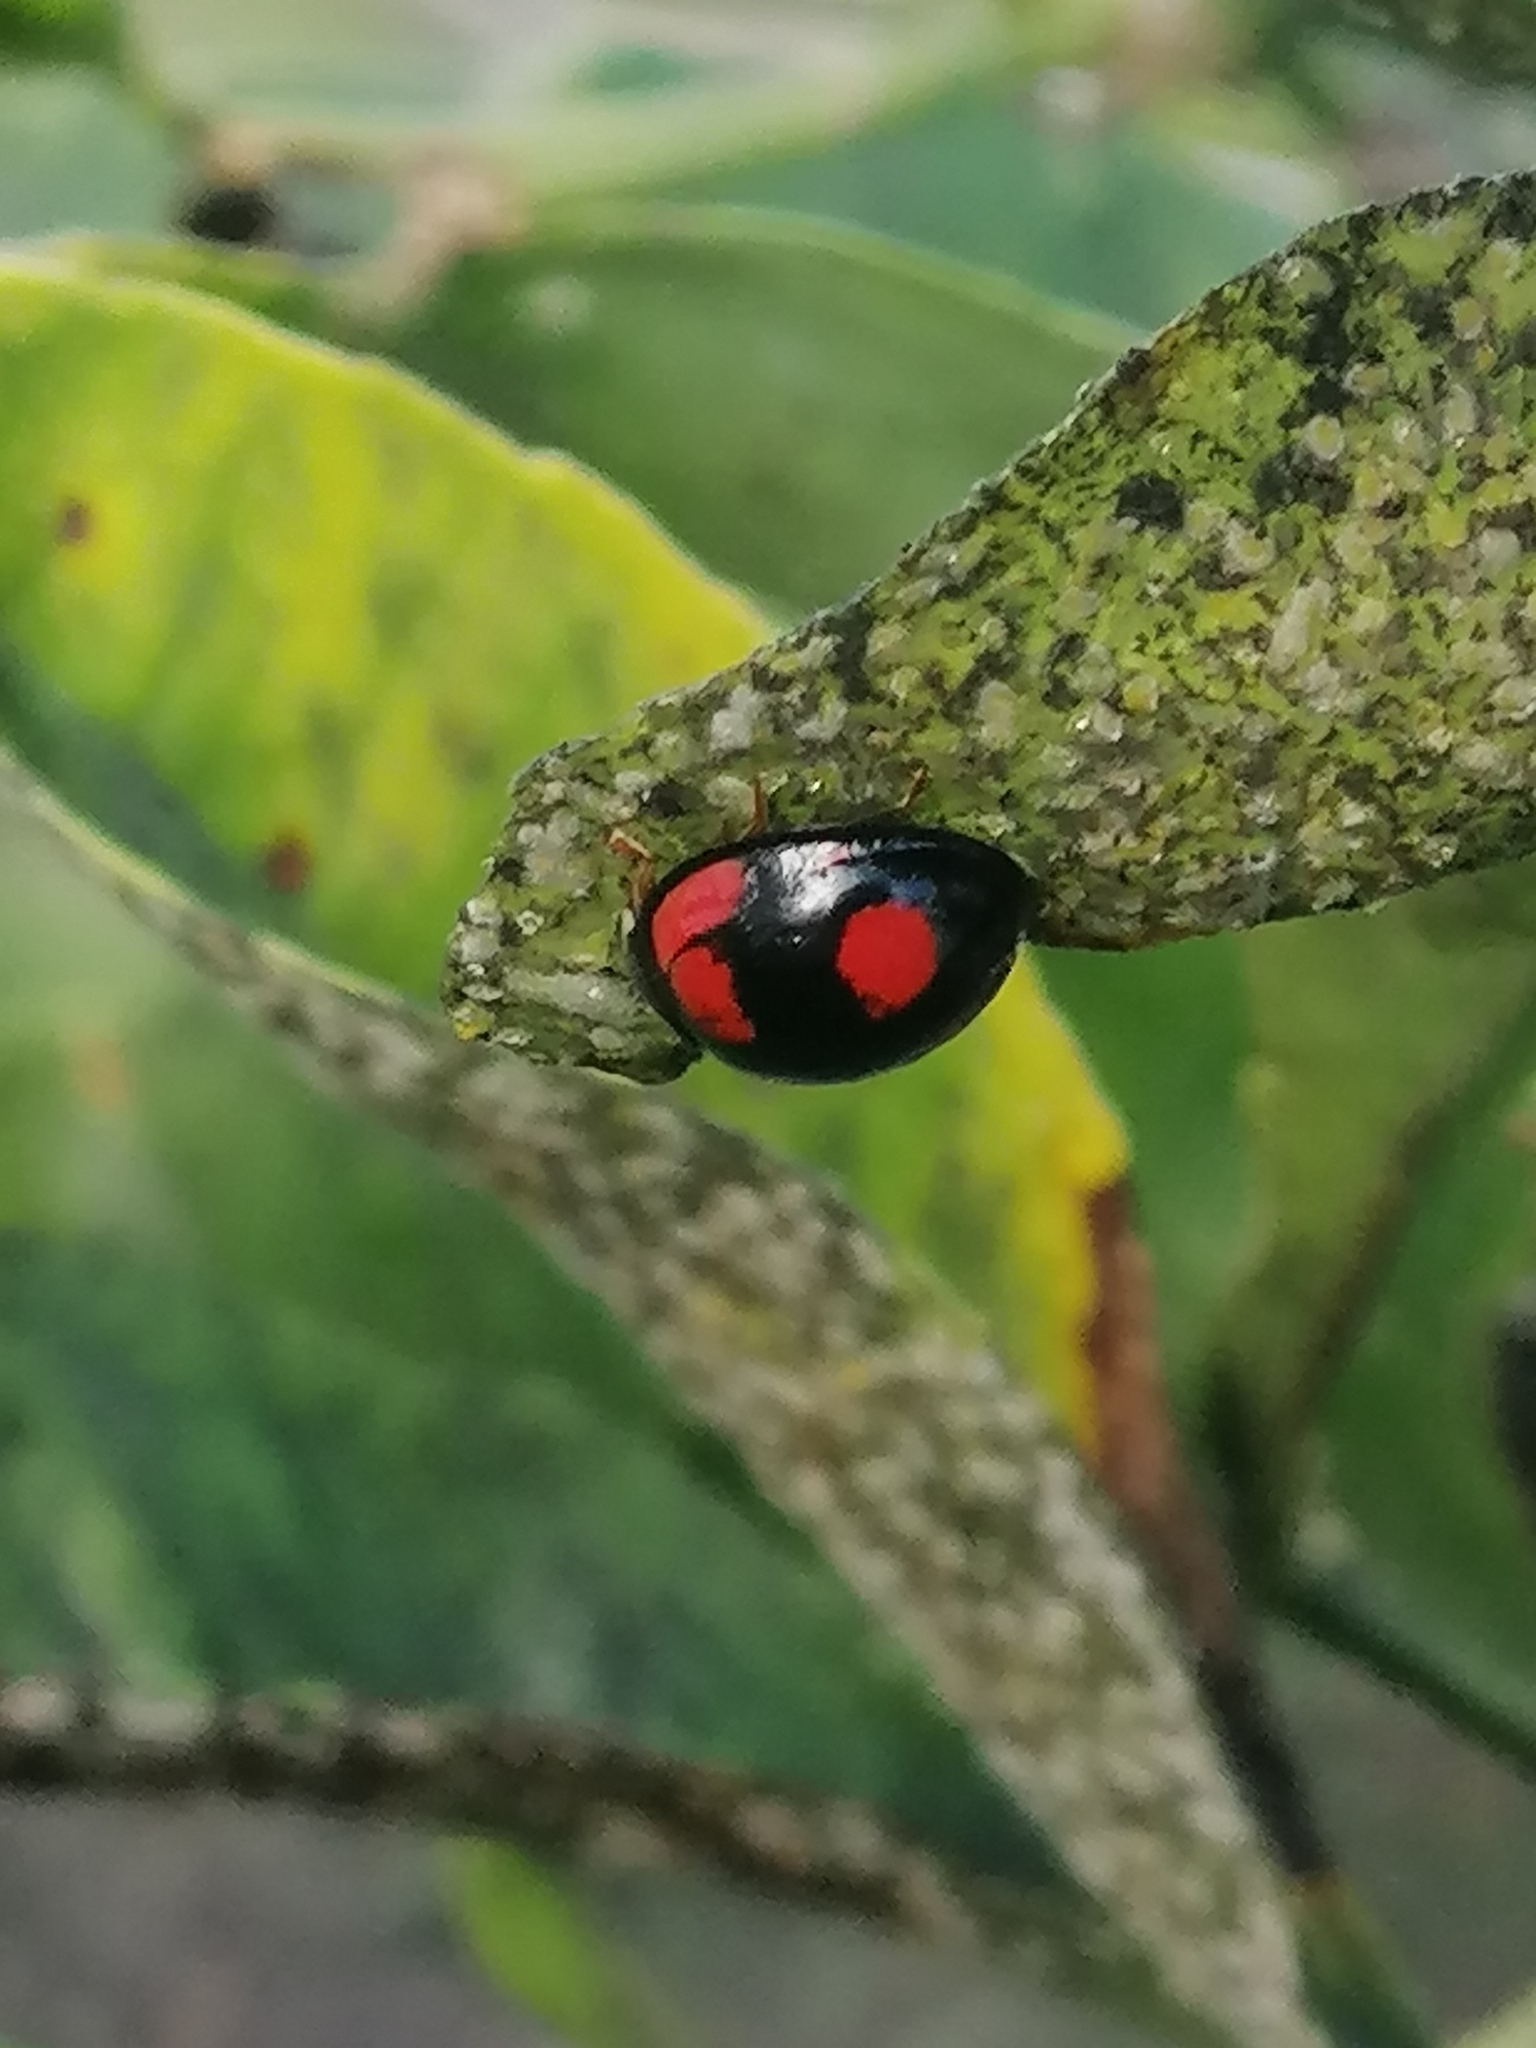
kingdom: Animalia
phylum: Arthropoda
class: Insecta
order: Coleoptera
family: Coccinellidae
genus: Cheilomenes
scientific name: Cheilomenes sexmaculata
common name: Ladybird beetle
